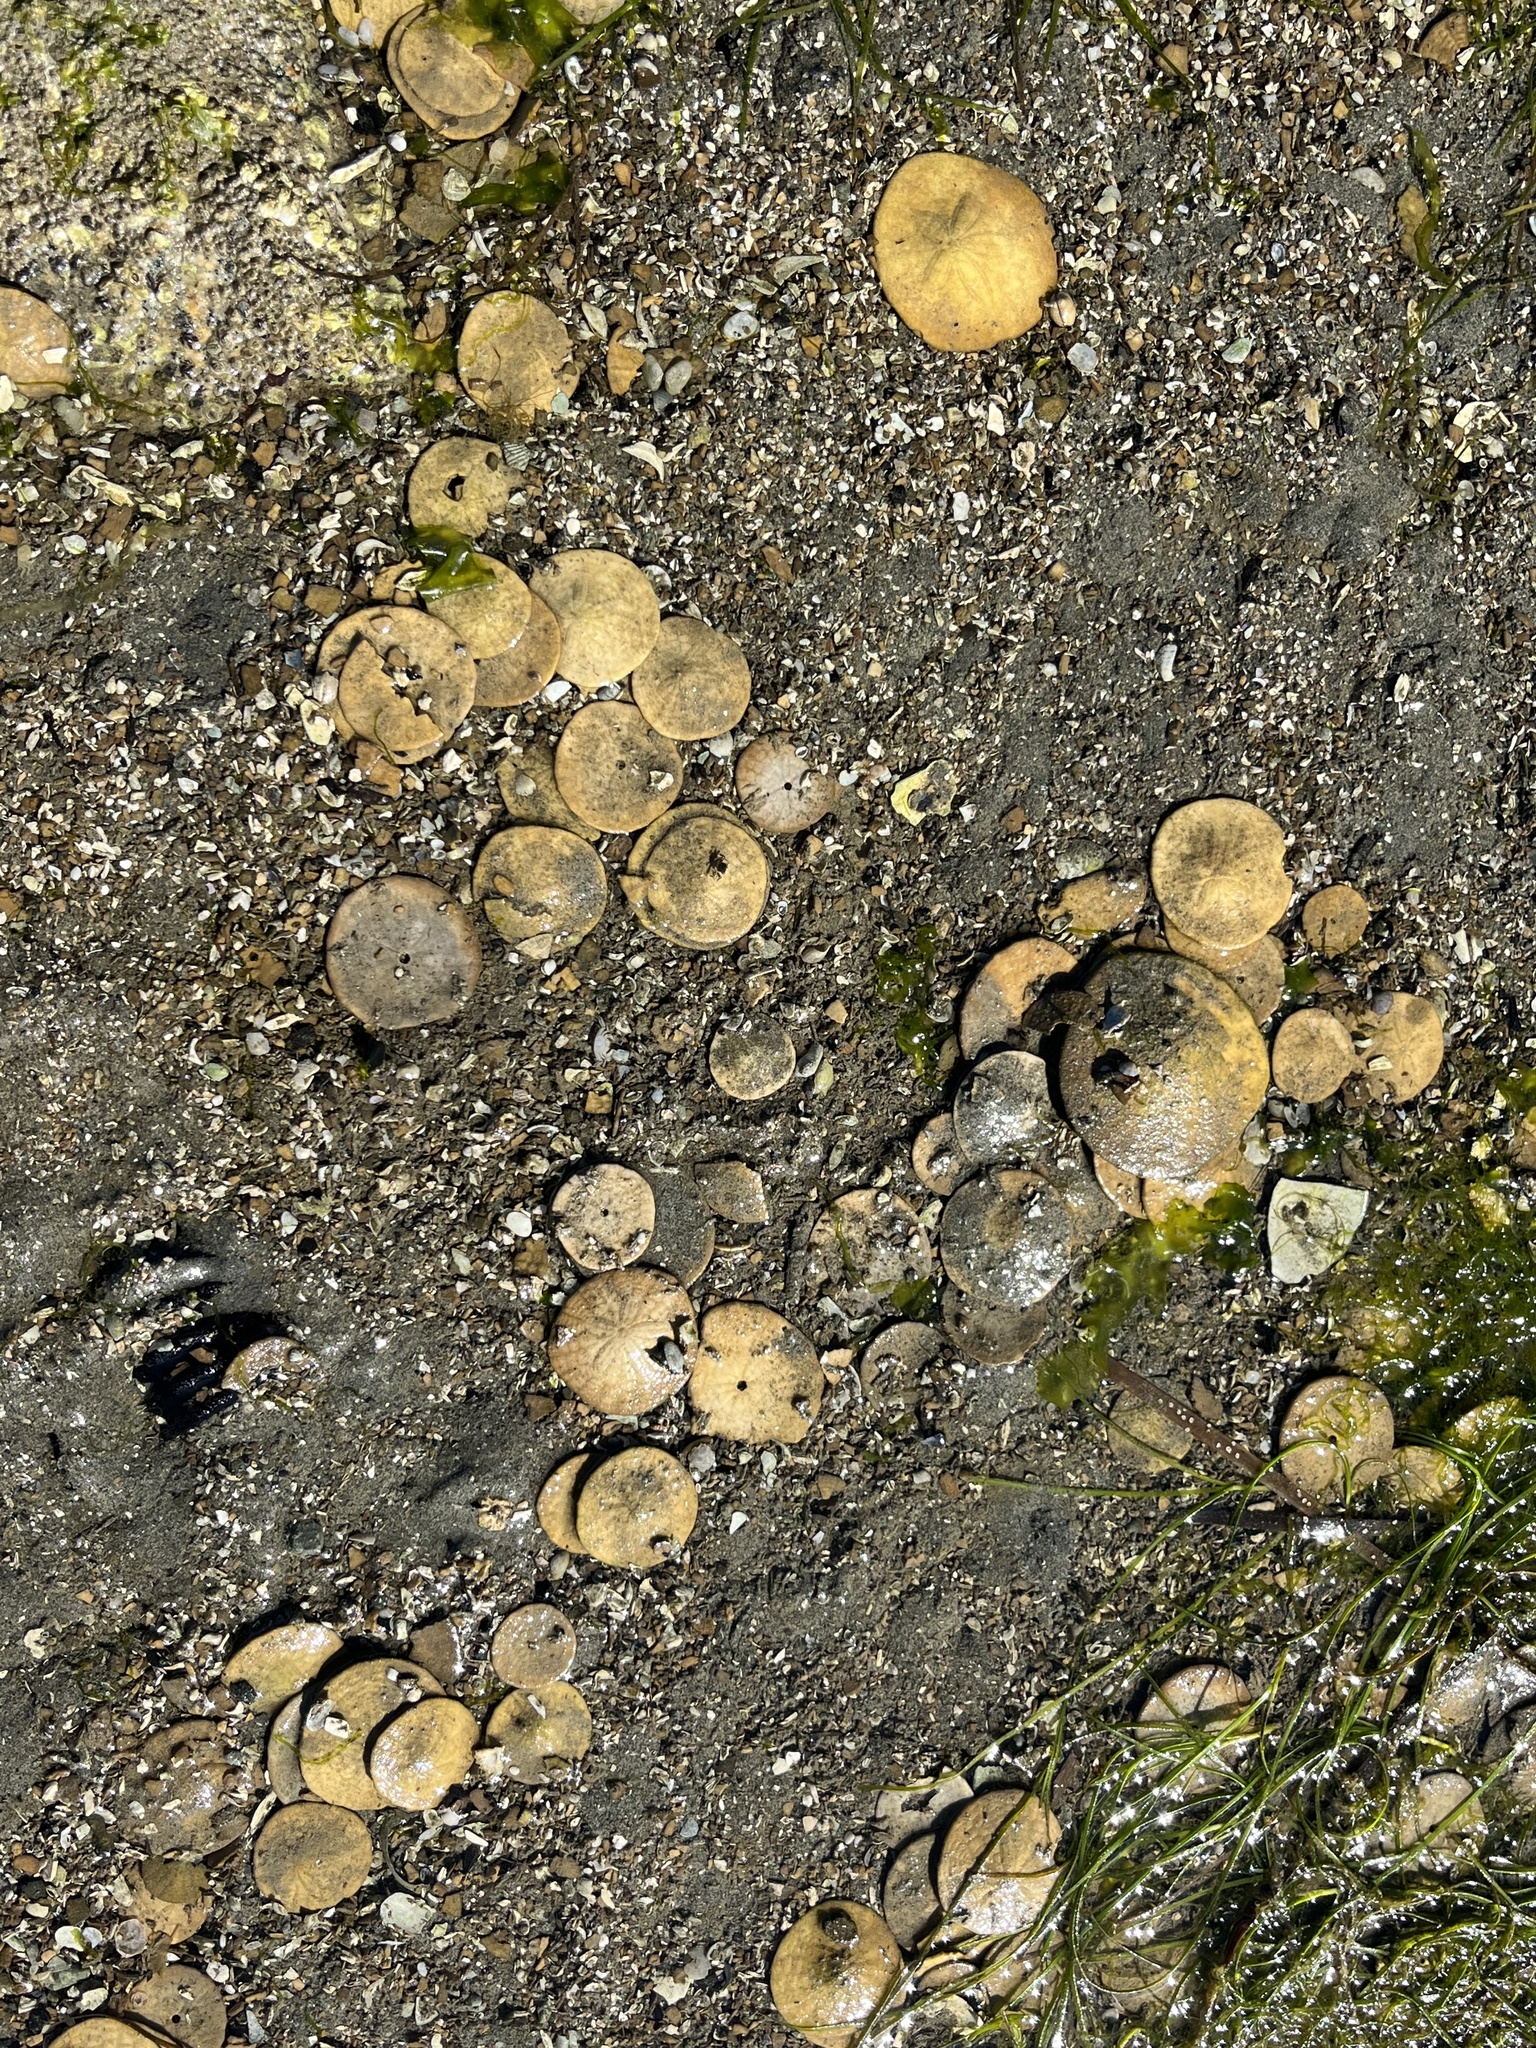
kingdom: Animalia
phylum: Echinodermata
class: Echinoidea
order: Echinolampadacea
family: Dendrasteridae
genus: Dendraster
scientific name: Dendraster excentricus
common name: Eccentric sand dollar sea urchin
